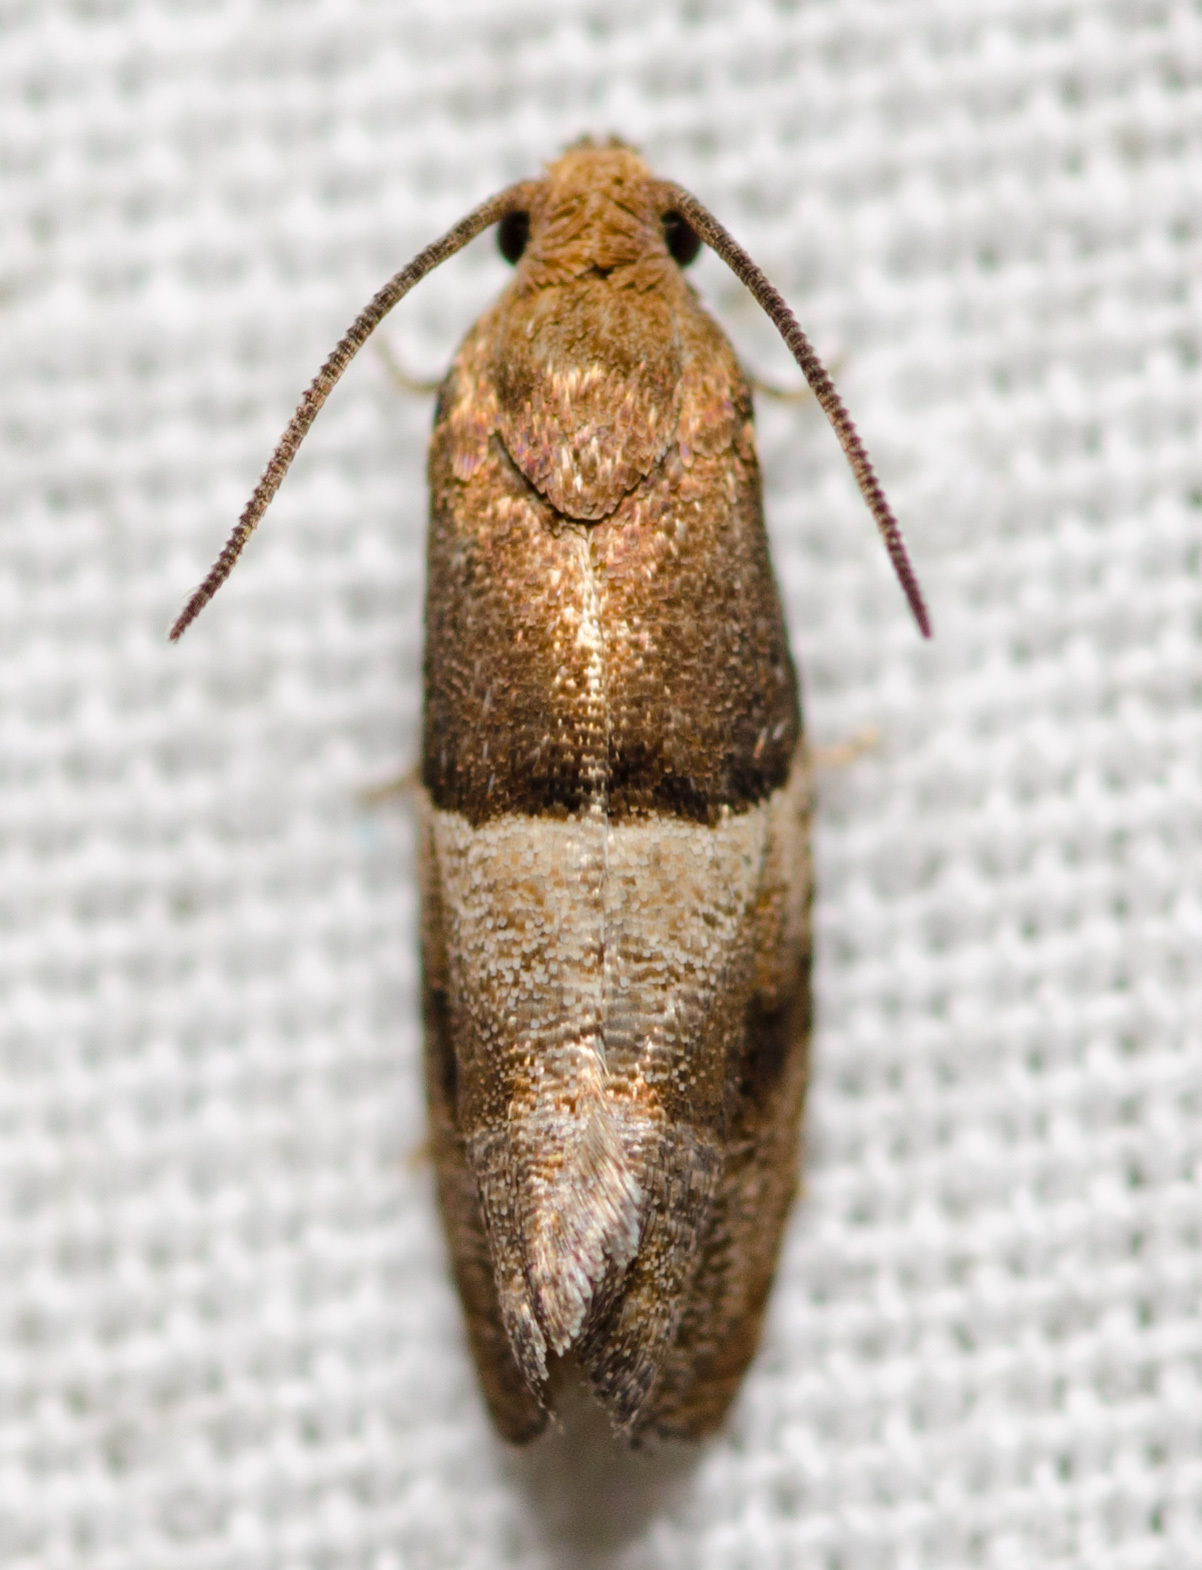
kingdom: Animalia
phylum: Arthropoda
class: Insecta
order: Lepidoptera
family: Tortricidae
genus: Larisa
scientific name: Larisa subsolana
